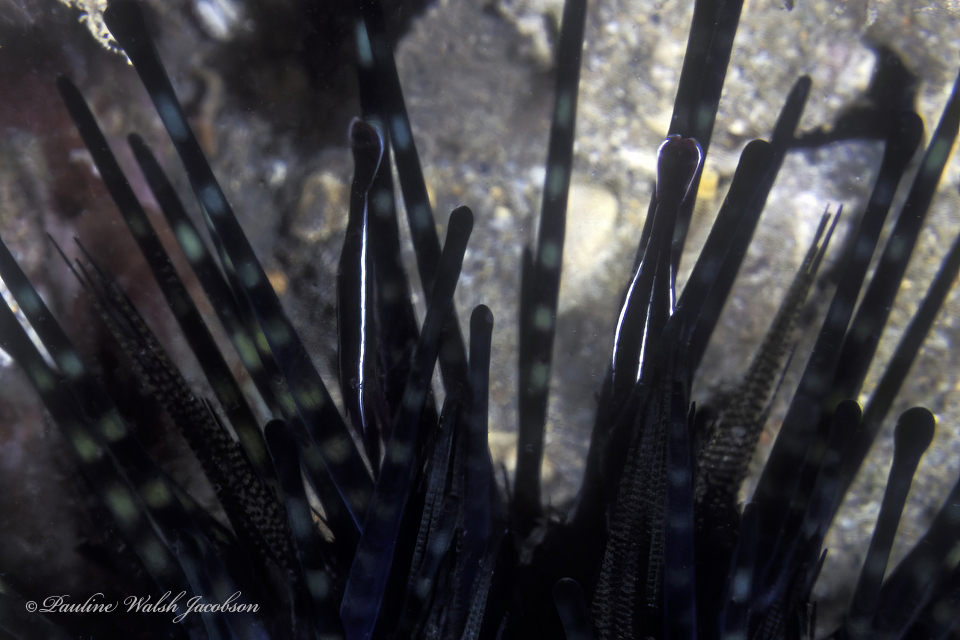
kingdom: Animalia
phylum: Arthropoda
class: Malacostraca
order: Decapoda
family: Palaemonidae
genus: Stegopontonia
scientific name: Stegopontonia commensalis
